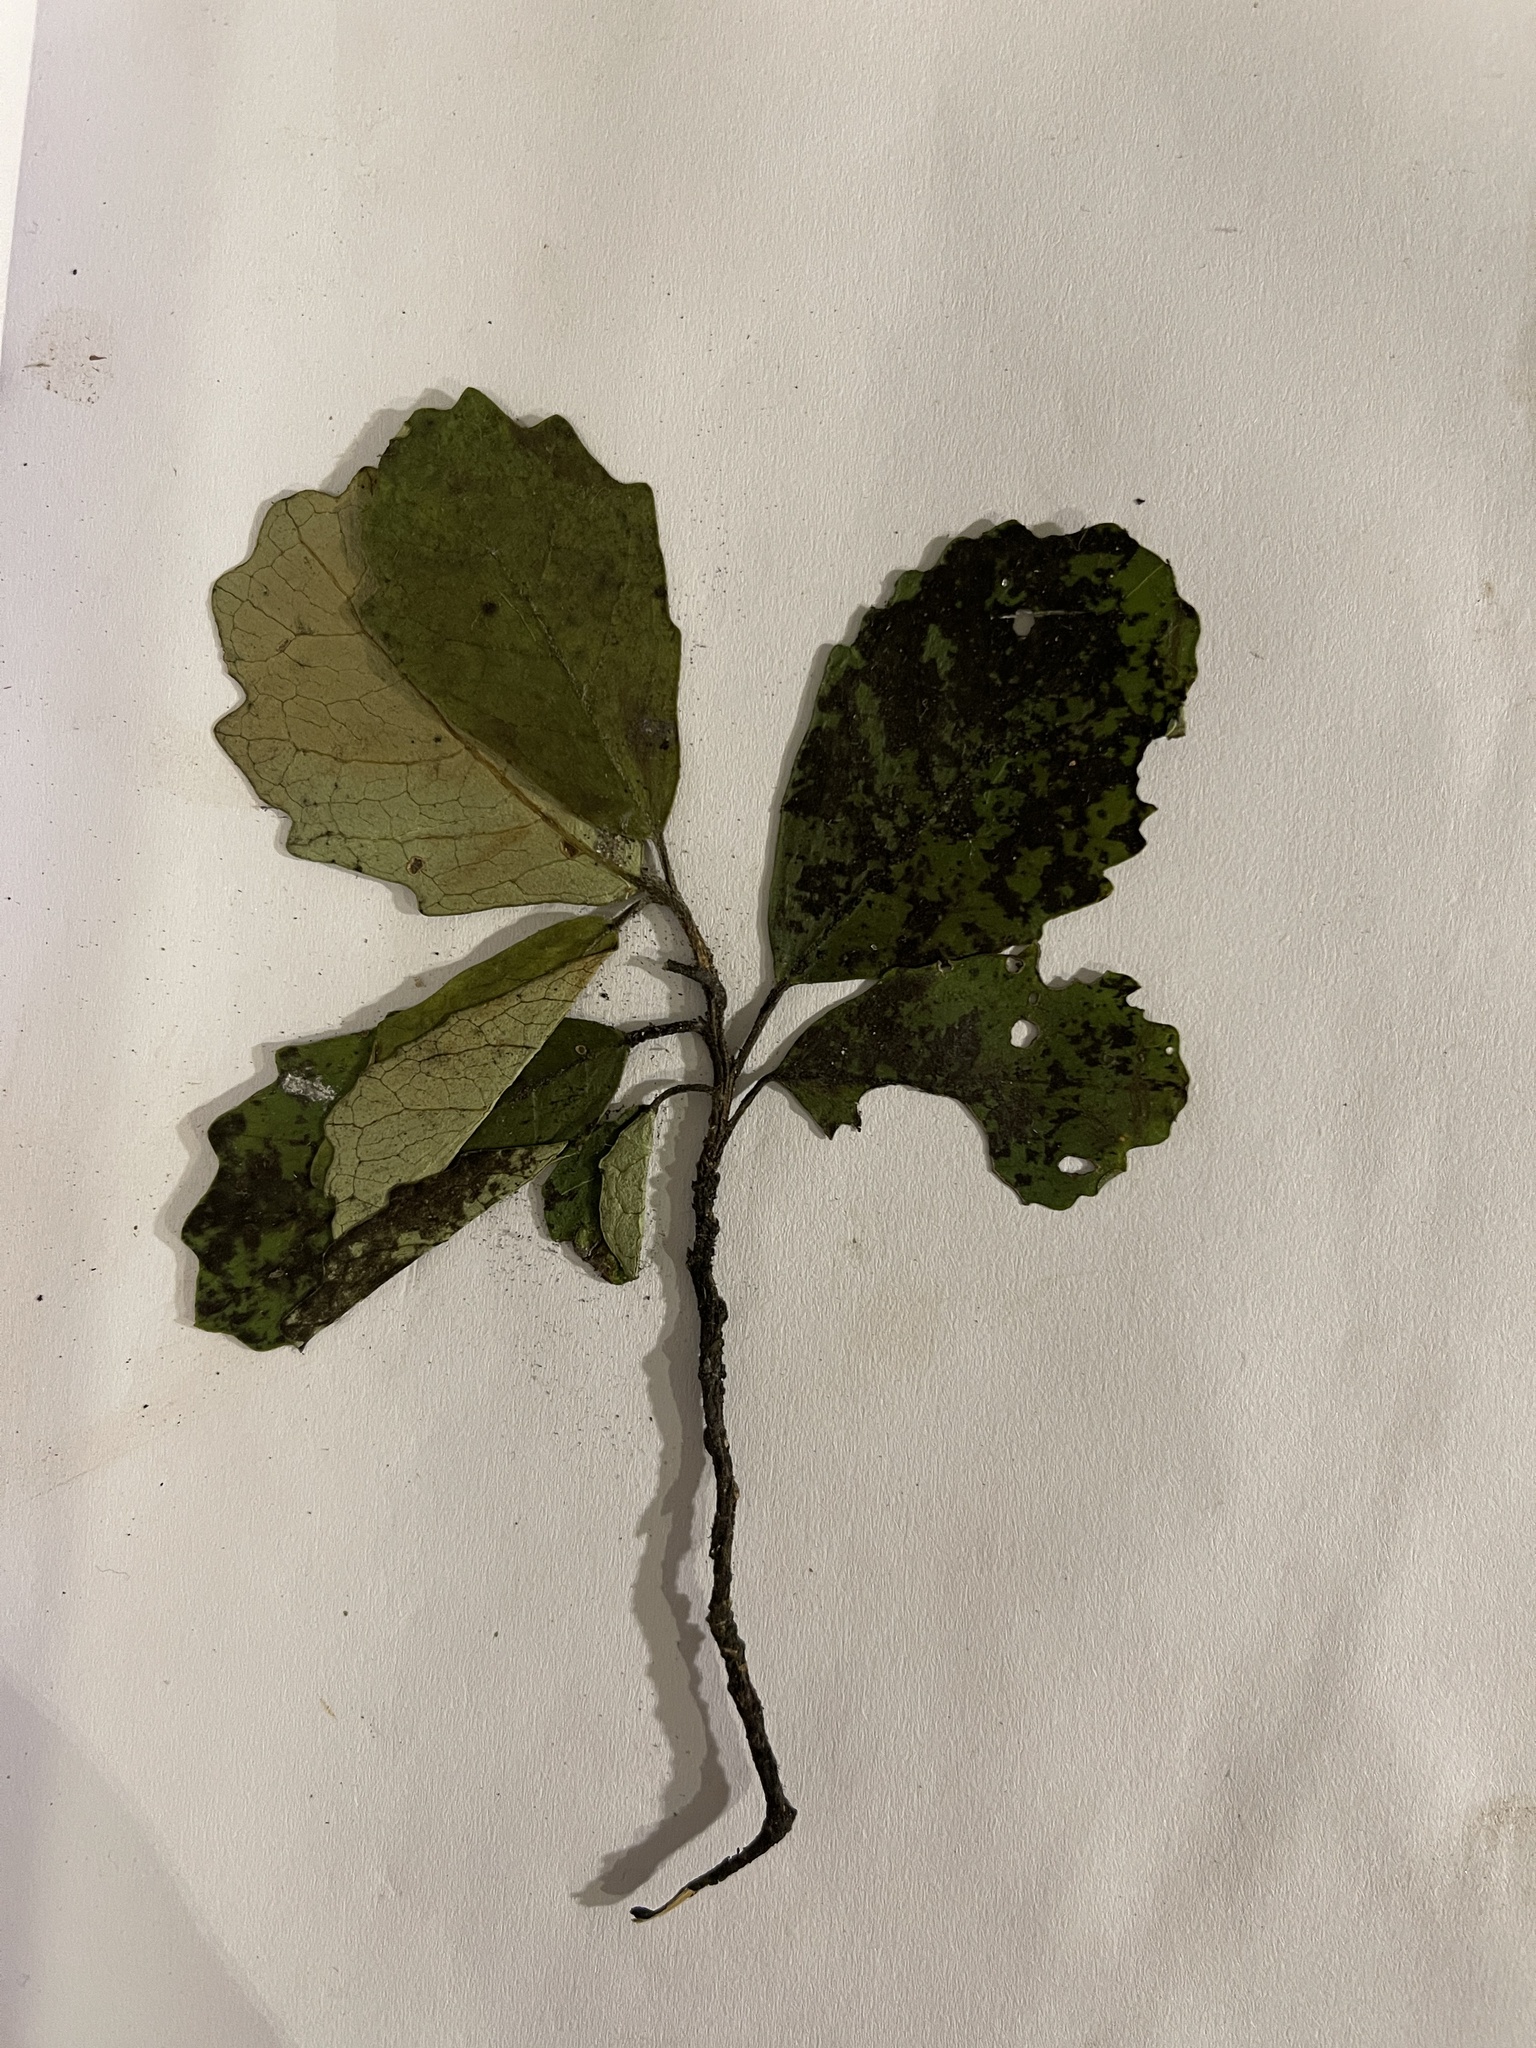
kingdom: Plantae
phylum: Tracheophyta
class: Magnoliopsida
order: Apiales
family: Pennantiaceae
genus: Pennantia
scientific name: Pennantia corymbosa
